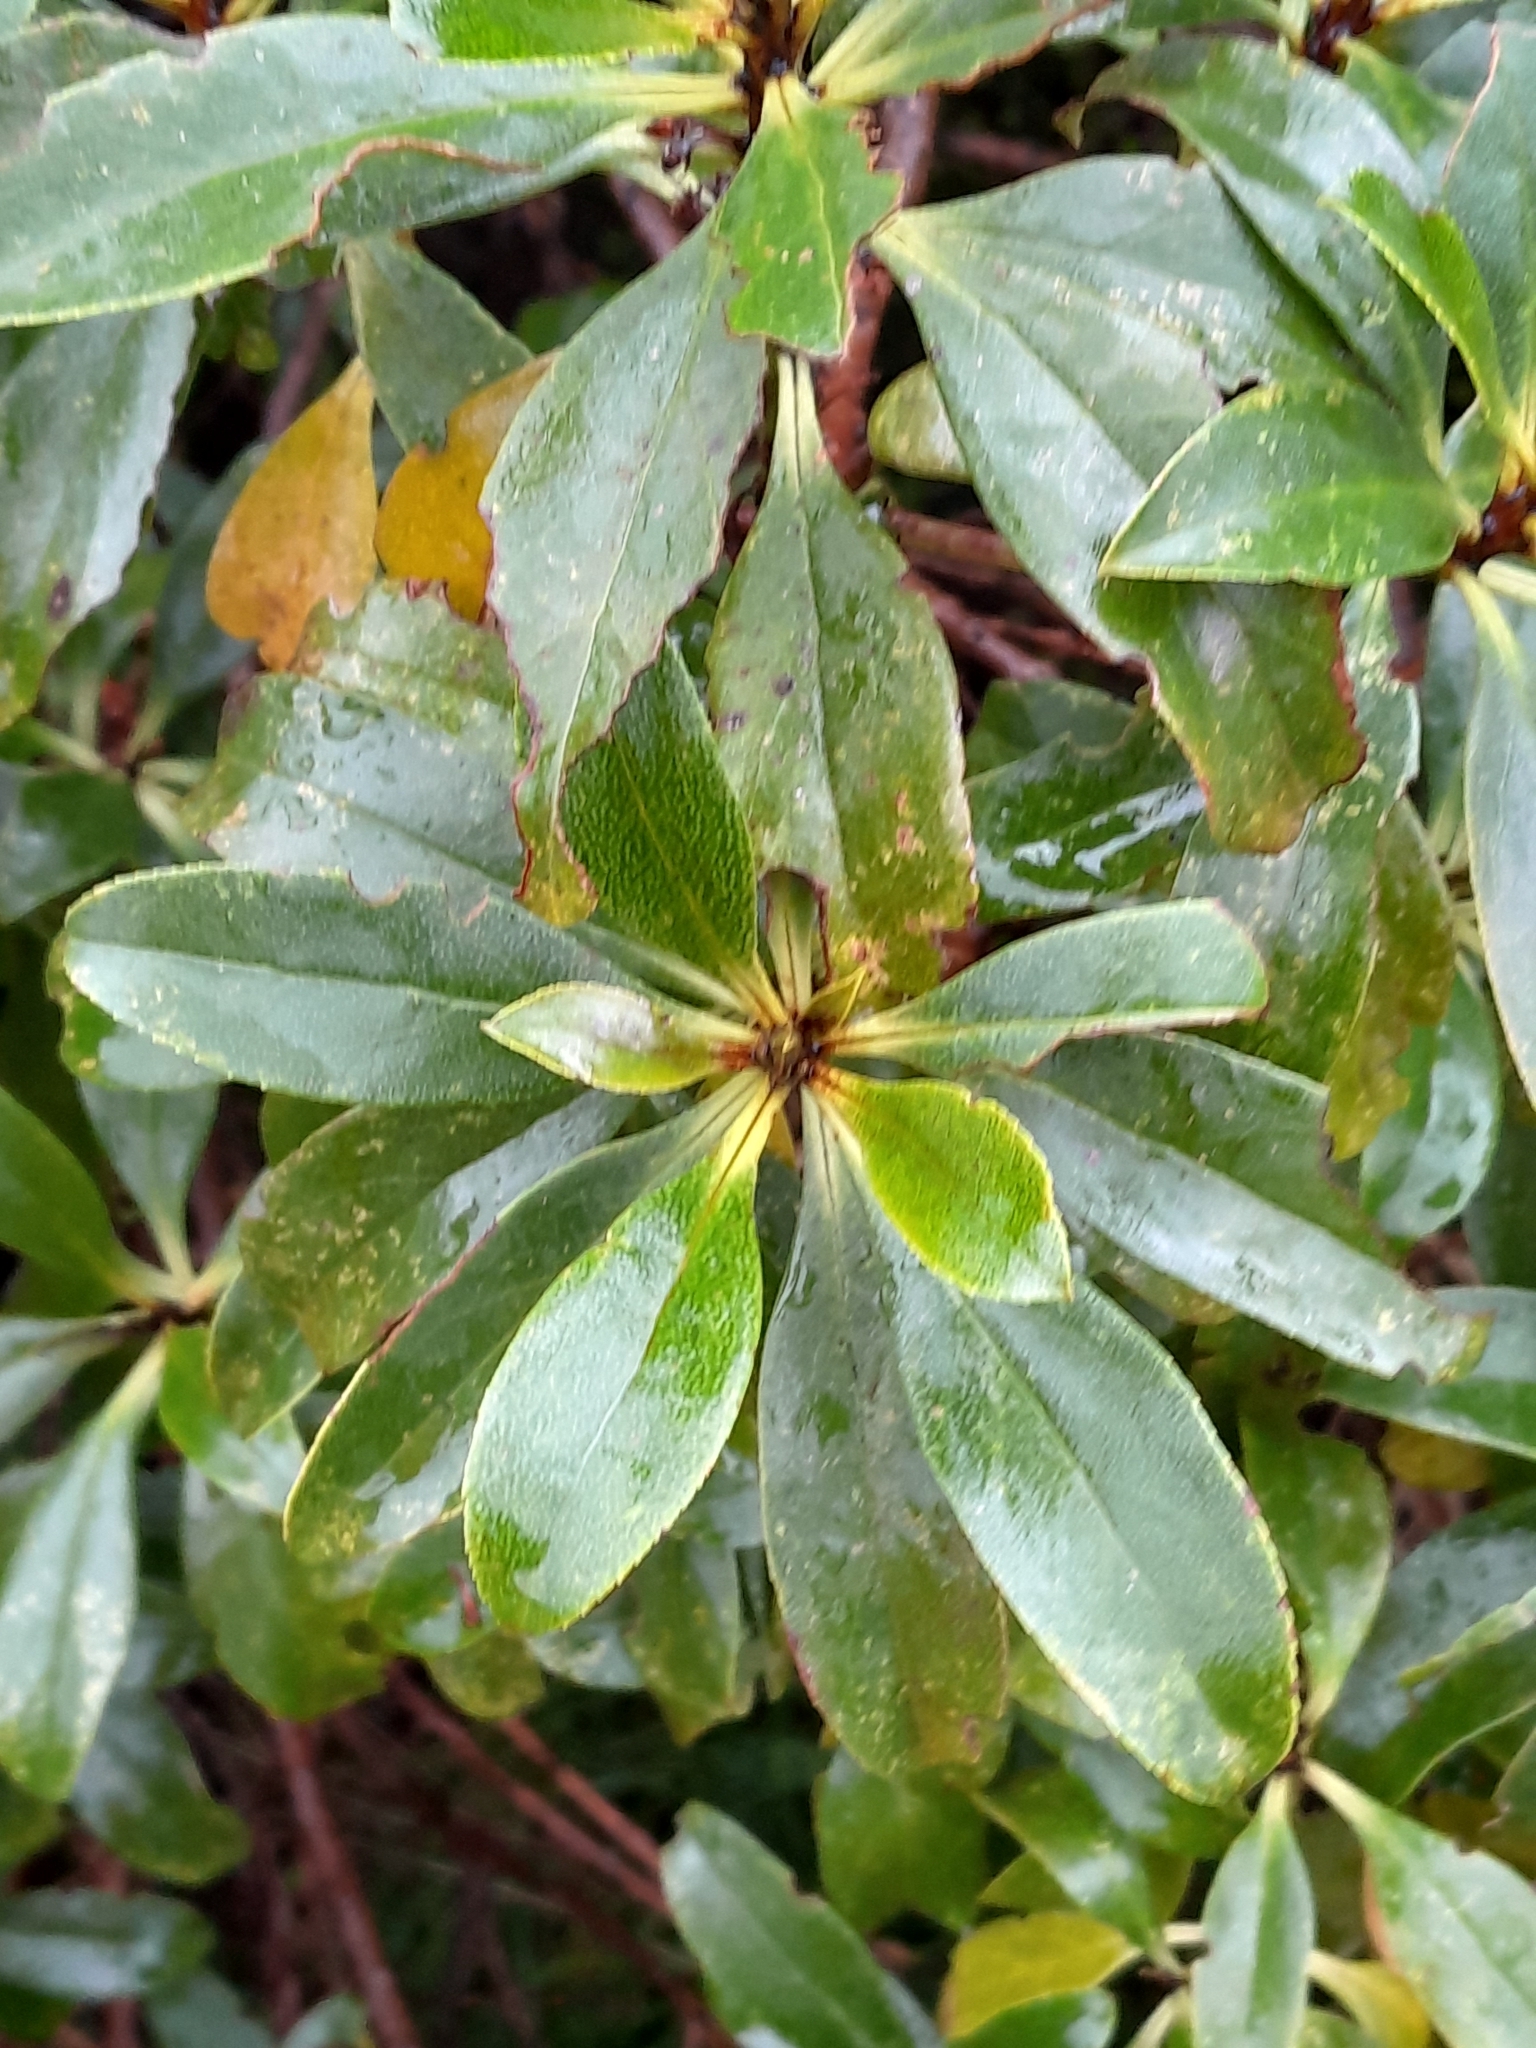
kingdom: Plantae
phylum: Tracheophyta
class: Magnoliopsida
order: Lamiales
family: Scrophulariaceae
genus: Myoporum
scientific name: Myoporum laetum
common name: Ngaio tree
